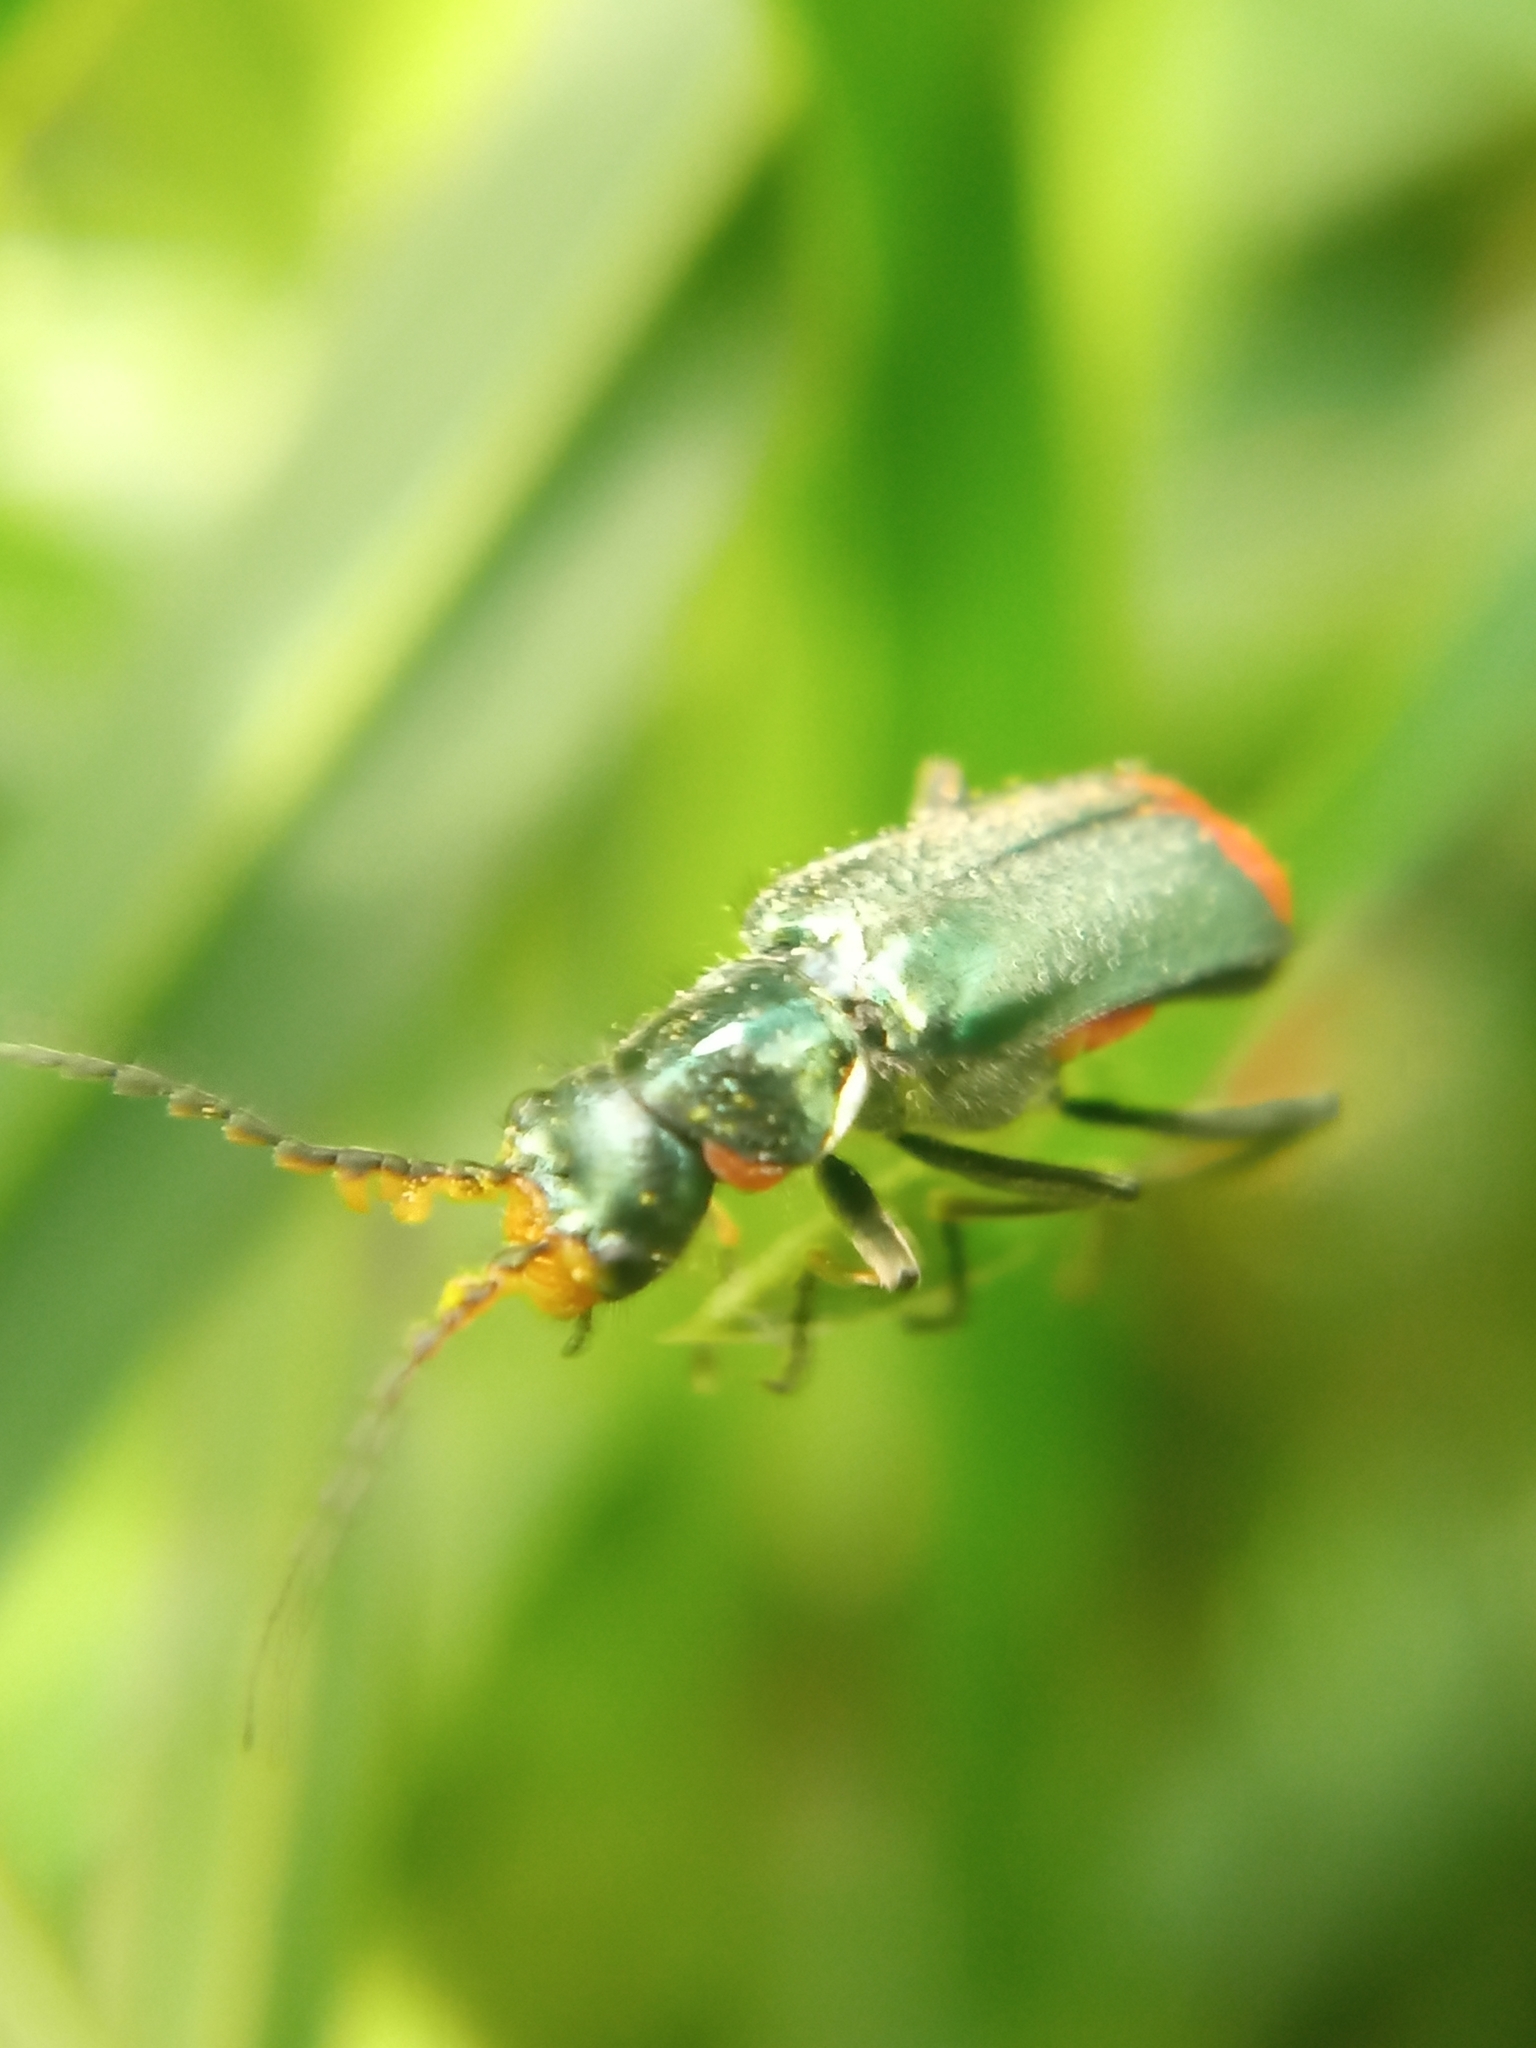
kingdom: Animalia
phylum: Arthropoda
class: Insecta
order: Coleoptera
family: Melyridae
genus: Malachius
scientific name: Malachius bipustulatus
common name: Malachite beetle
